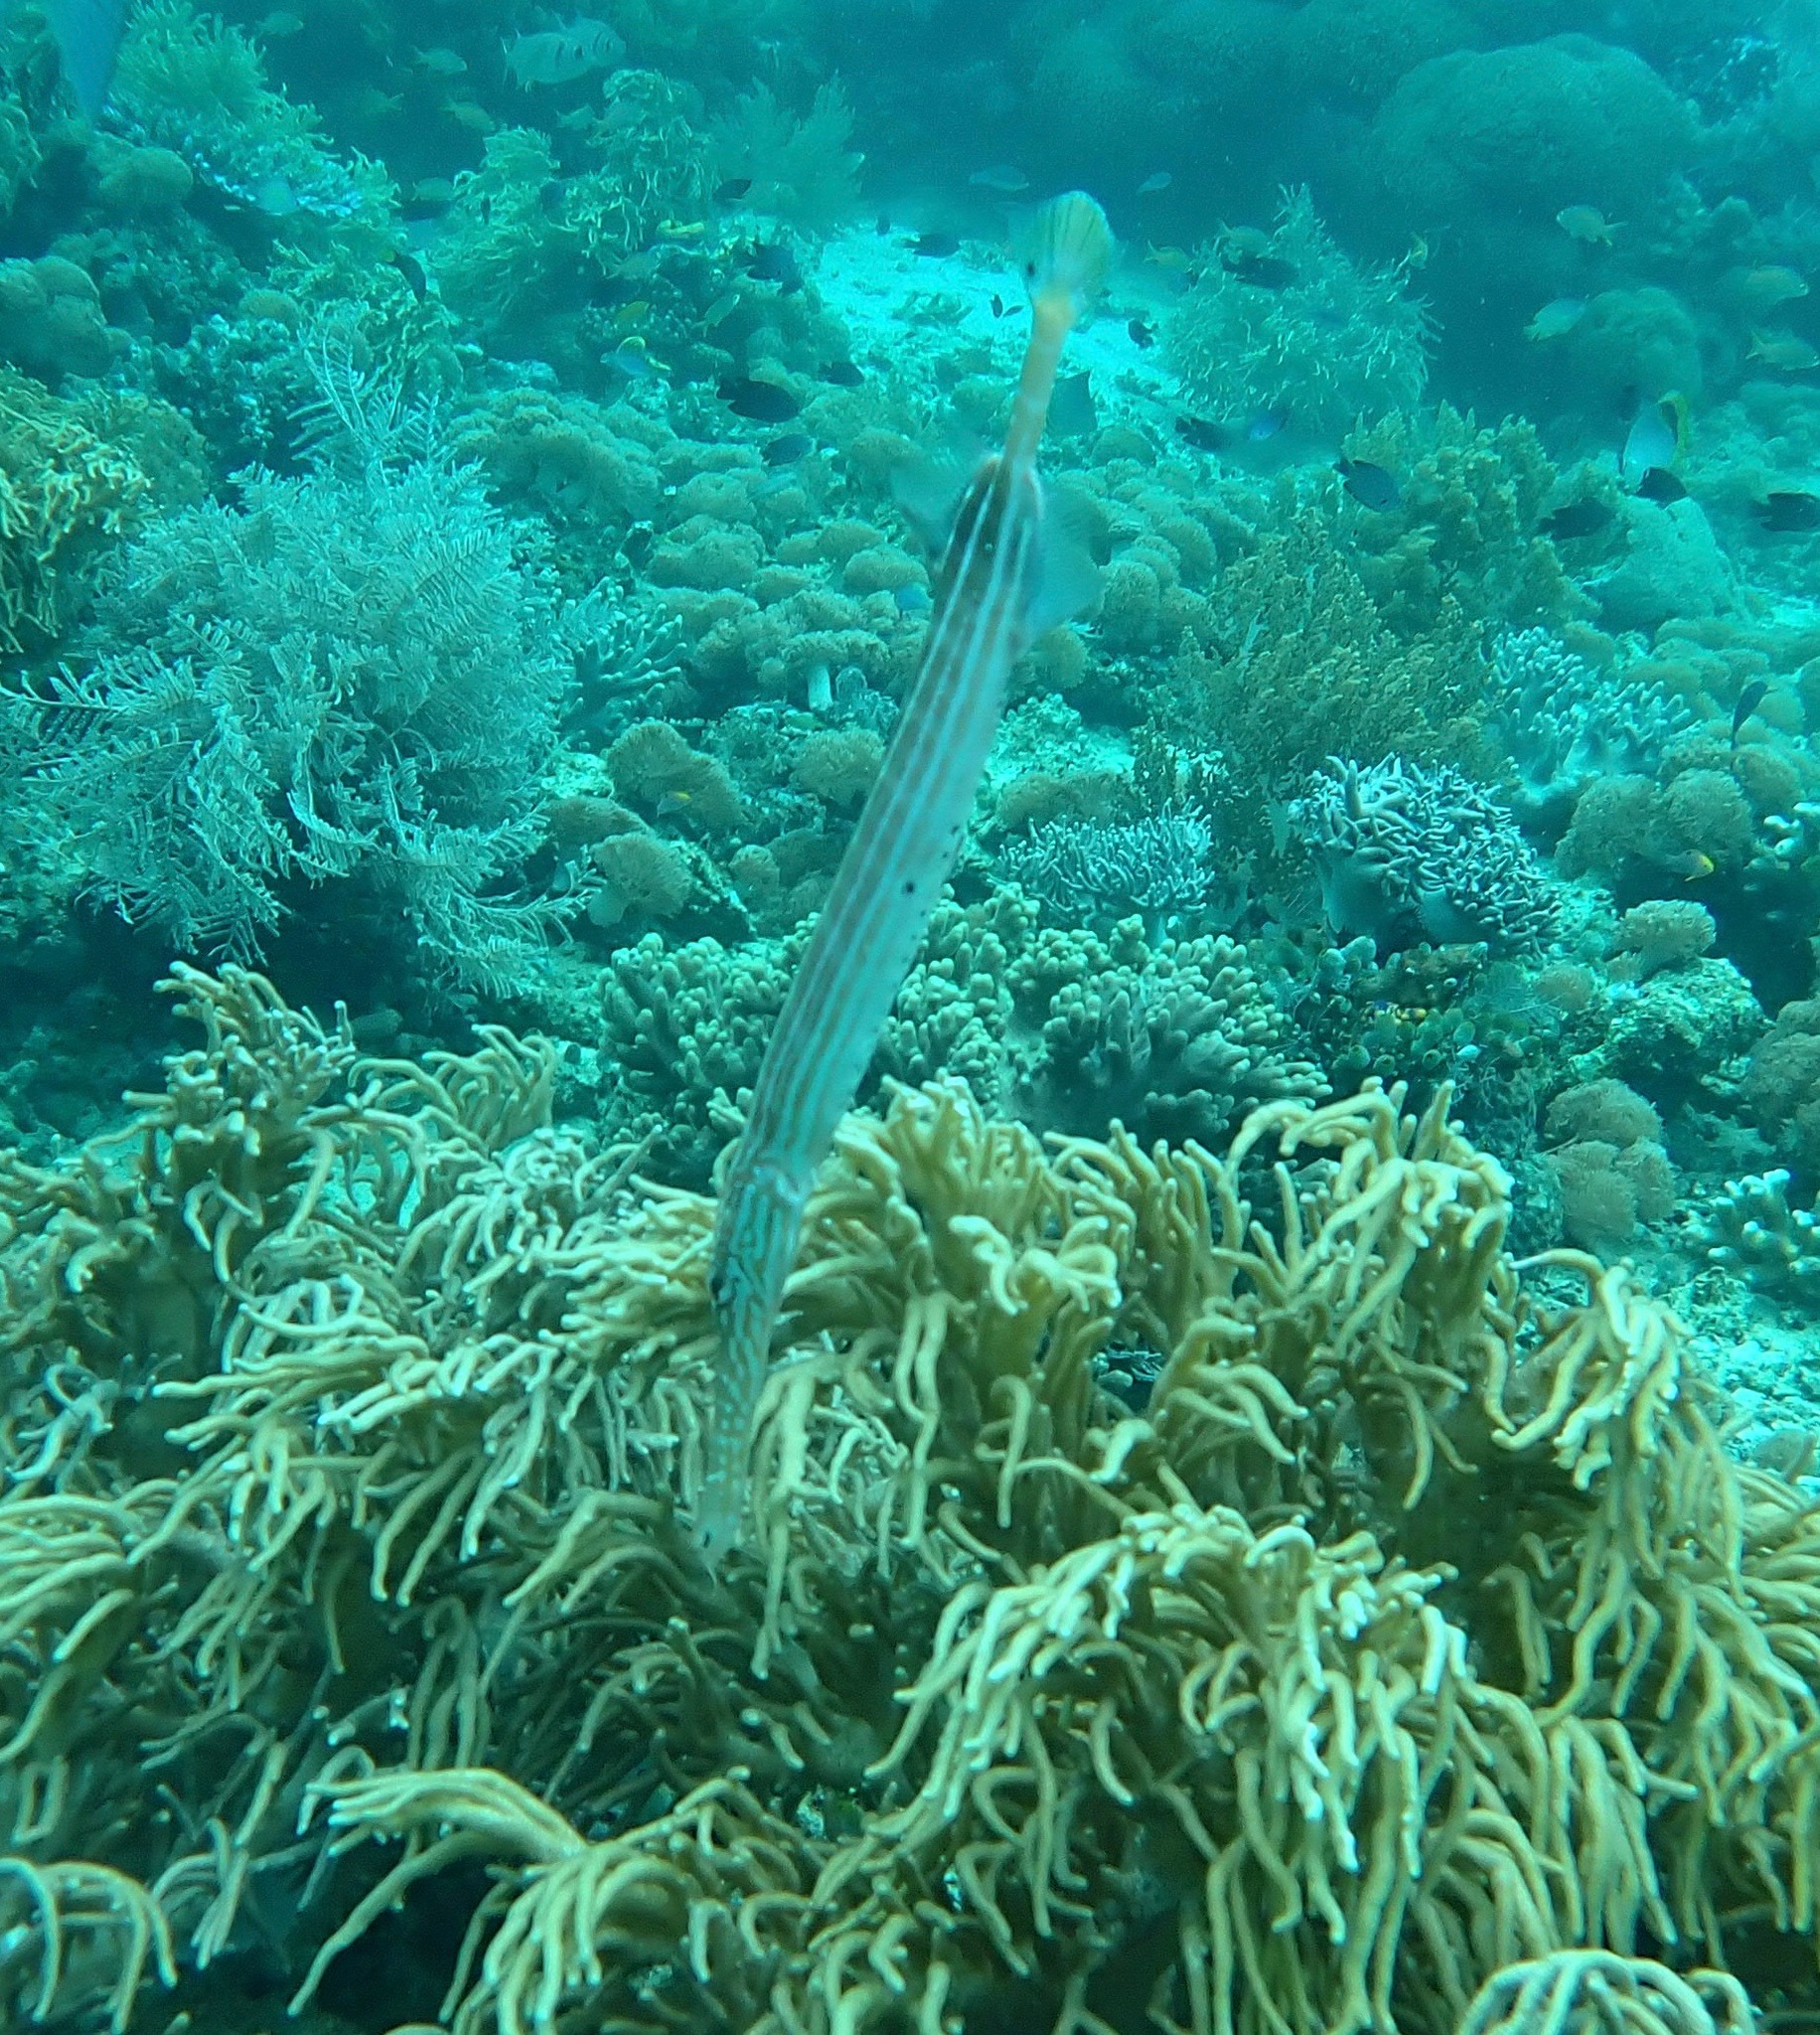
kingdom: Animalia
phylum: Chordata
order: Syngnathiformes
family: Aulostomidae
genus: Aulostomus
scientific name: Aulostomus chinensis
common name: Chinese trumpetfish
